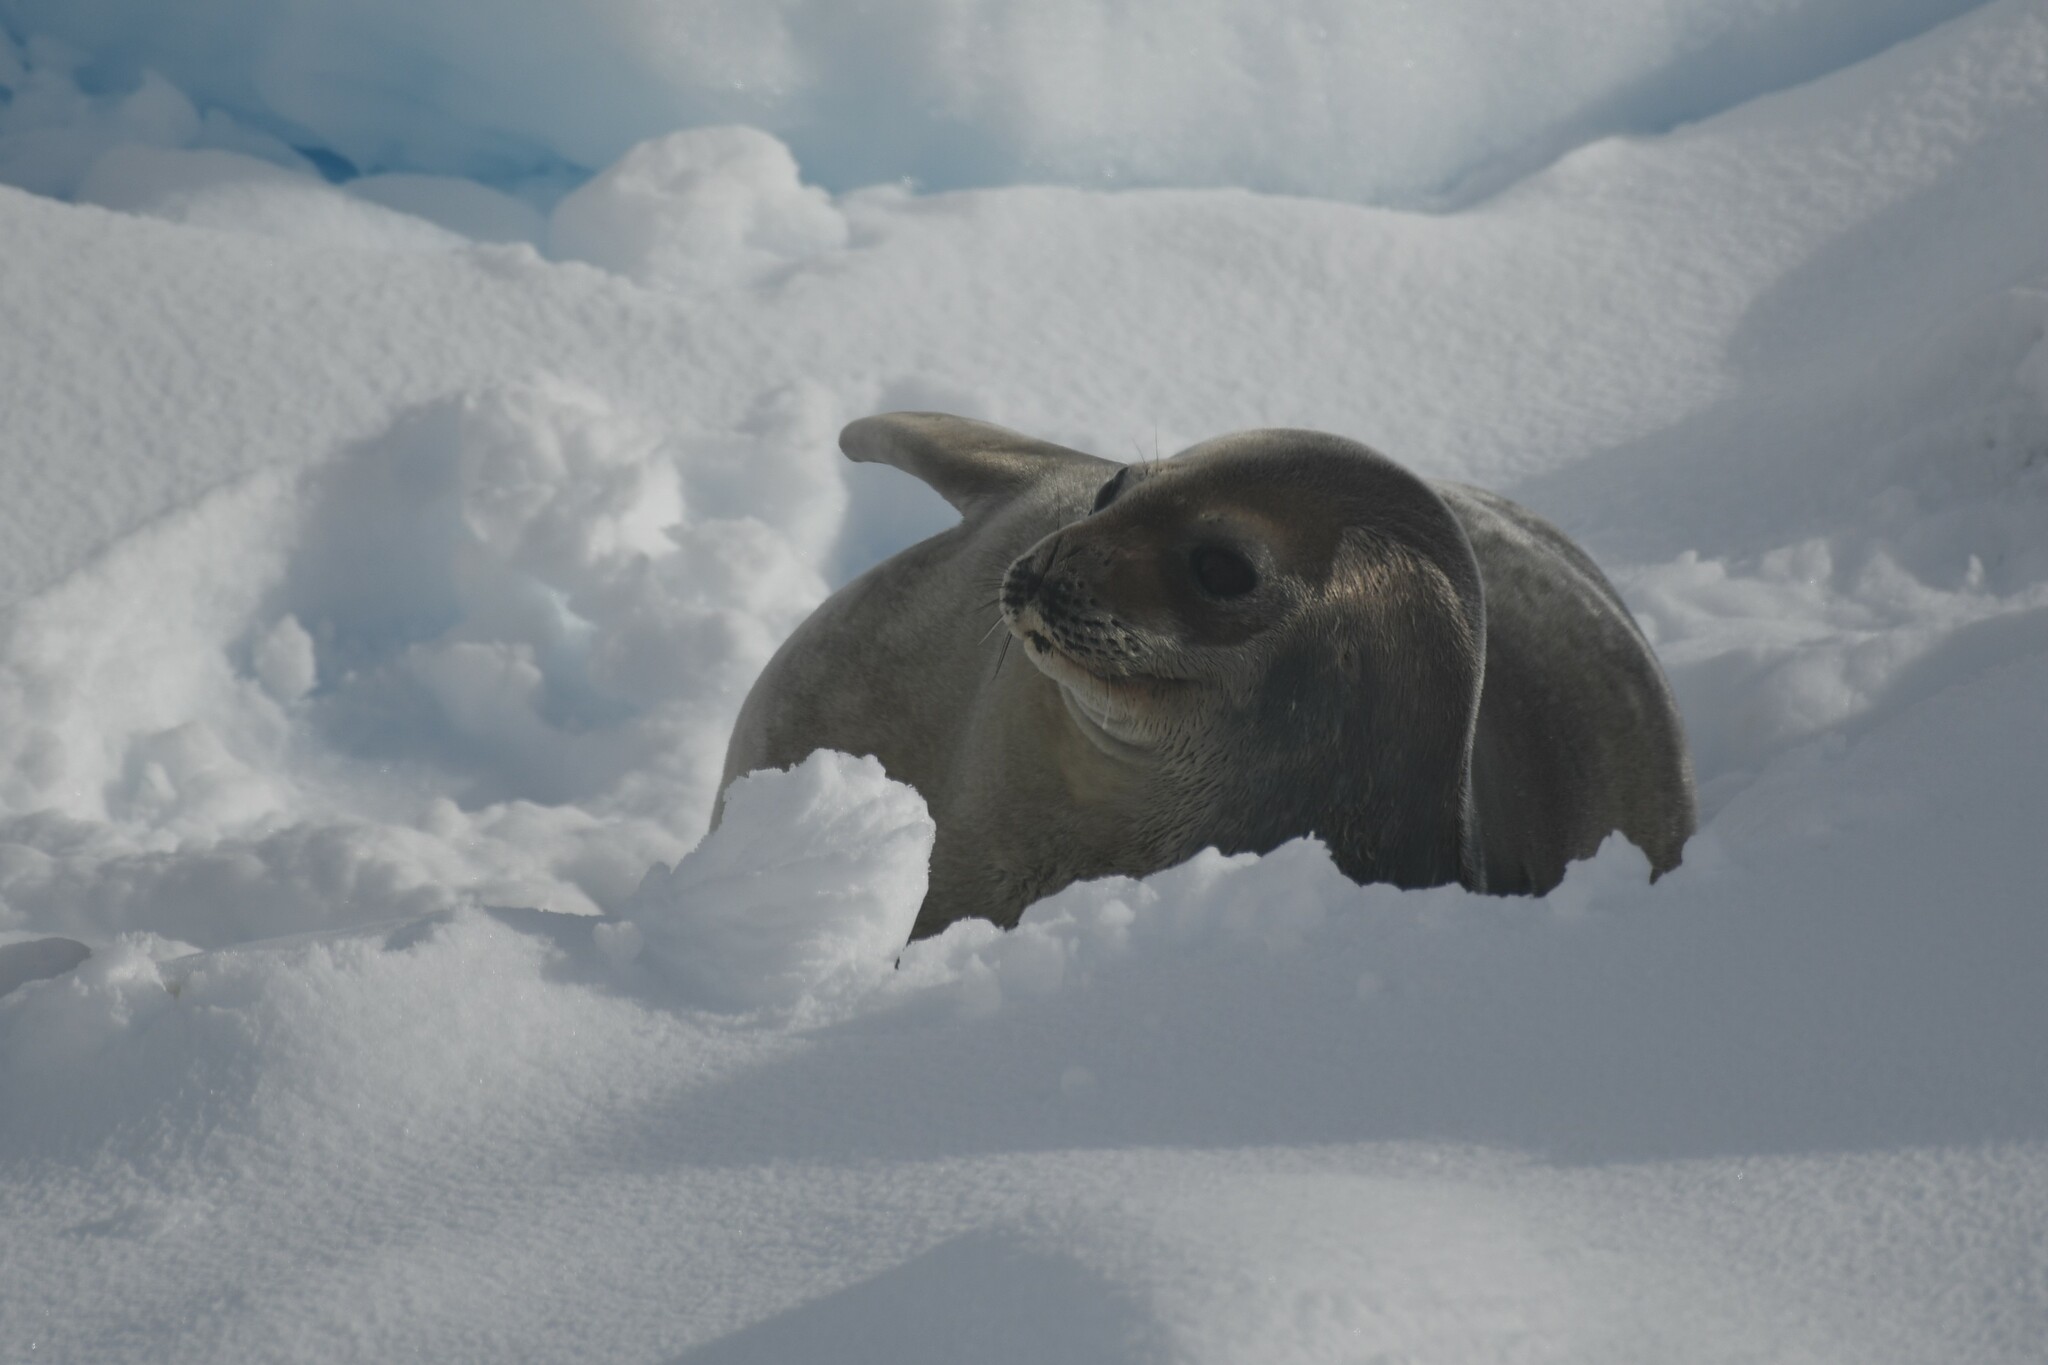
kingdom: Animalia
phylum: Chordata
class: Mammalia
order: Carnivora
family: Phocidae
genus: Leptonychotes
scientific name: Leptonychotes weddellii
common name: Weddell seal
